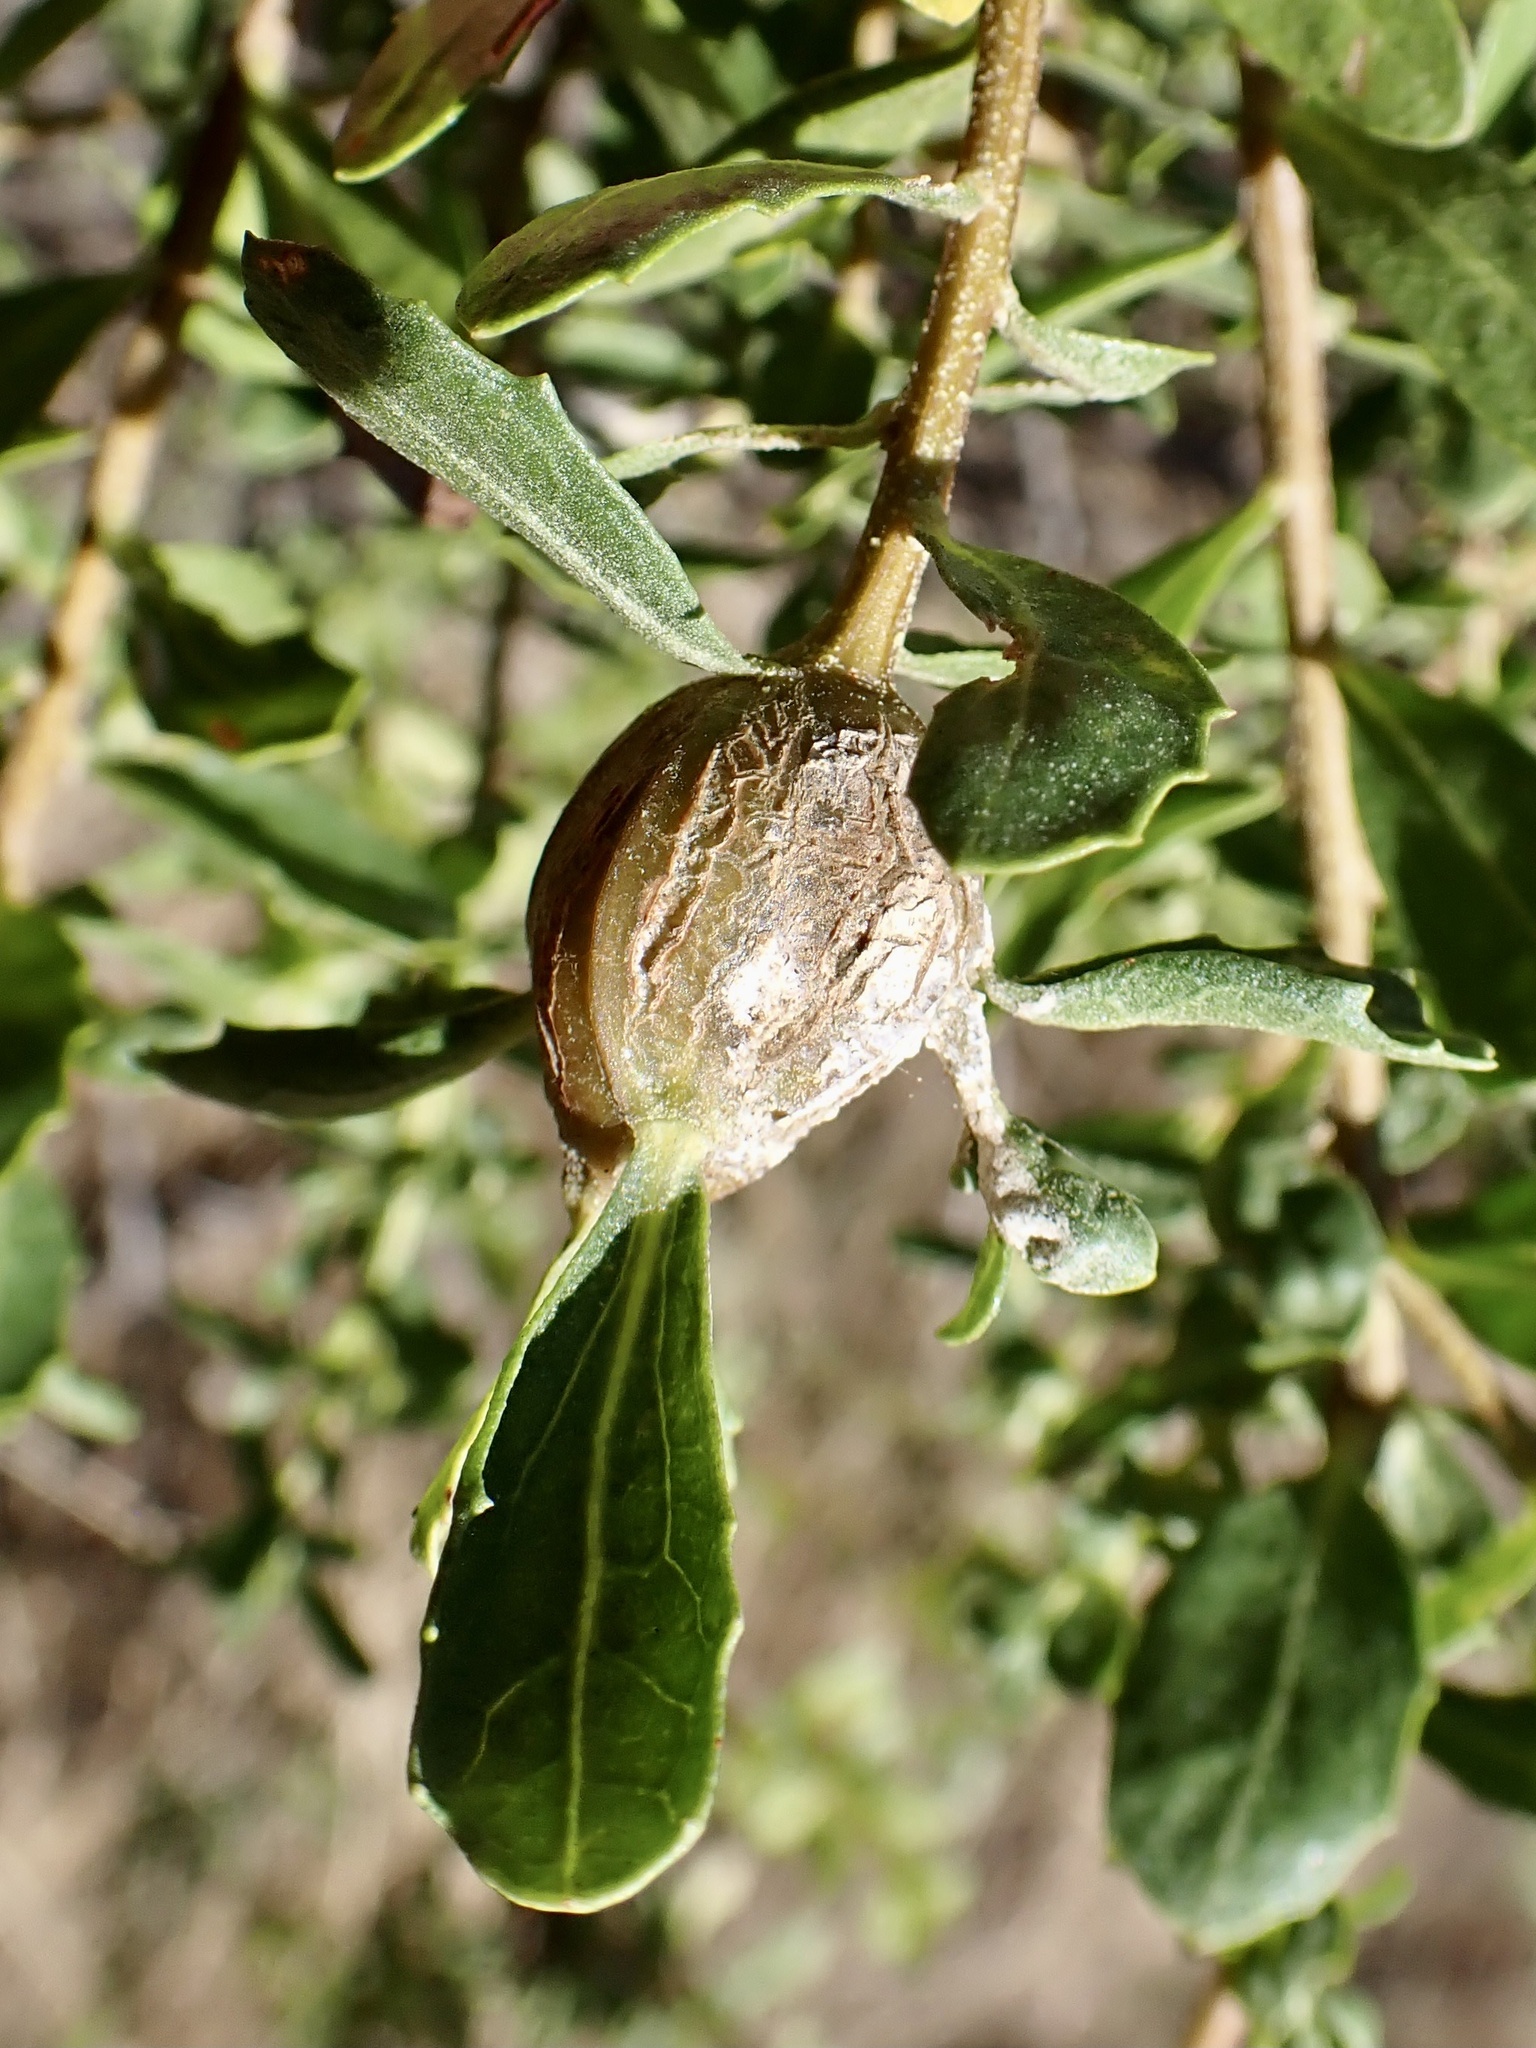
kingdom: Animalia
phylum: Arthropoda
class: Insecta
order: Lepidoptera
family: Gelechiidae
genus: Gnorimoschema
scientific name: Gnorimoschema baccharisella
